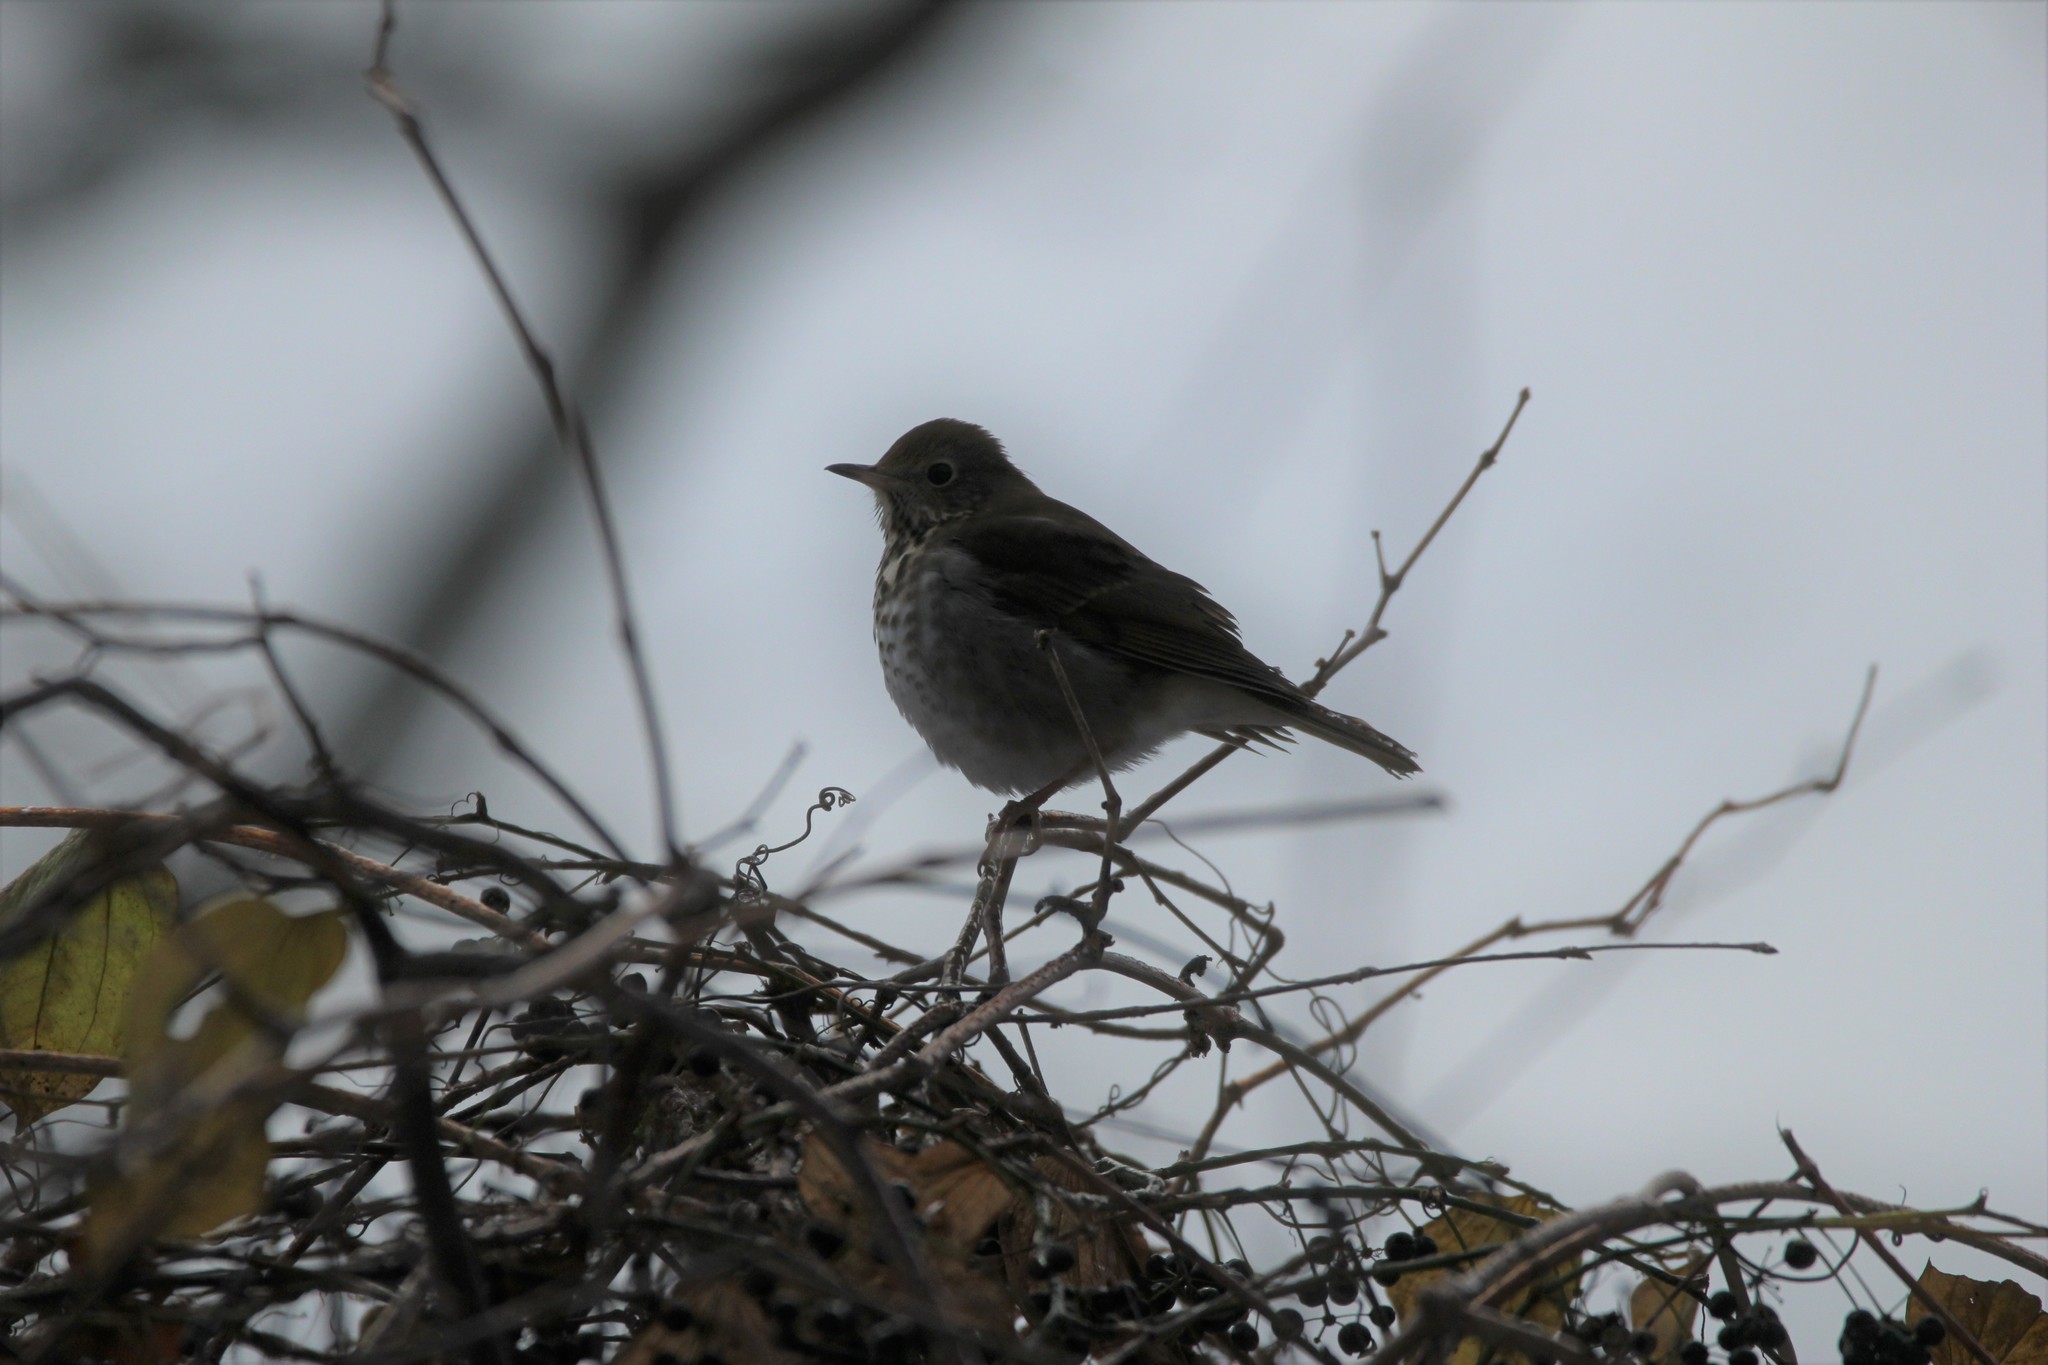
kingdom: Animalia
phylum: Chordata
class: Aves
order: Passeriformes
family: Turdidae
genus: Catharus
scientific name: Catharus guttatus
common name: Hermit thrush
